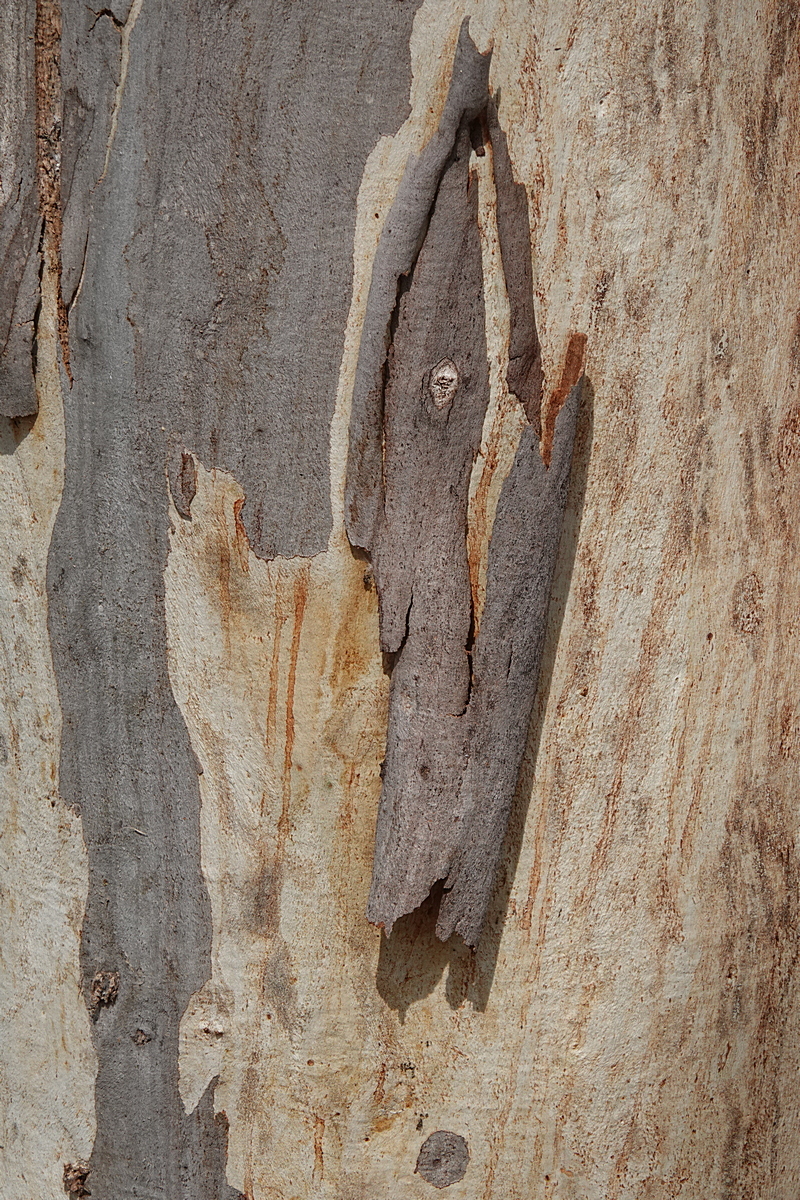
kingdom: Plantae
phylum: Tracheophyta
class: Magnoliopsida
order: Myrtales
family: Myrtaceae
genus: Eucalyptus
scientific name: Eucalyptus pauciflora
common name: Snow gum
